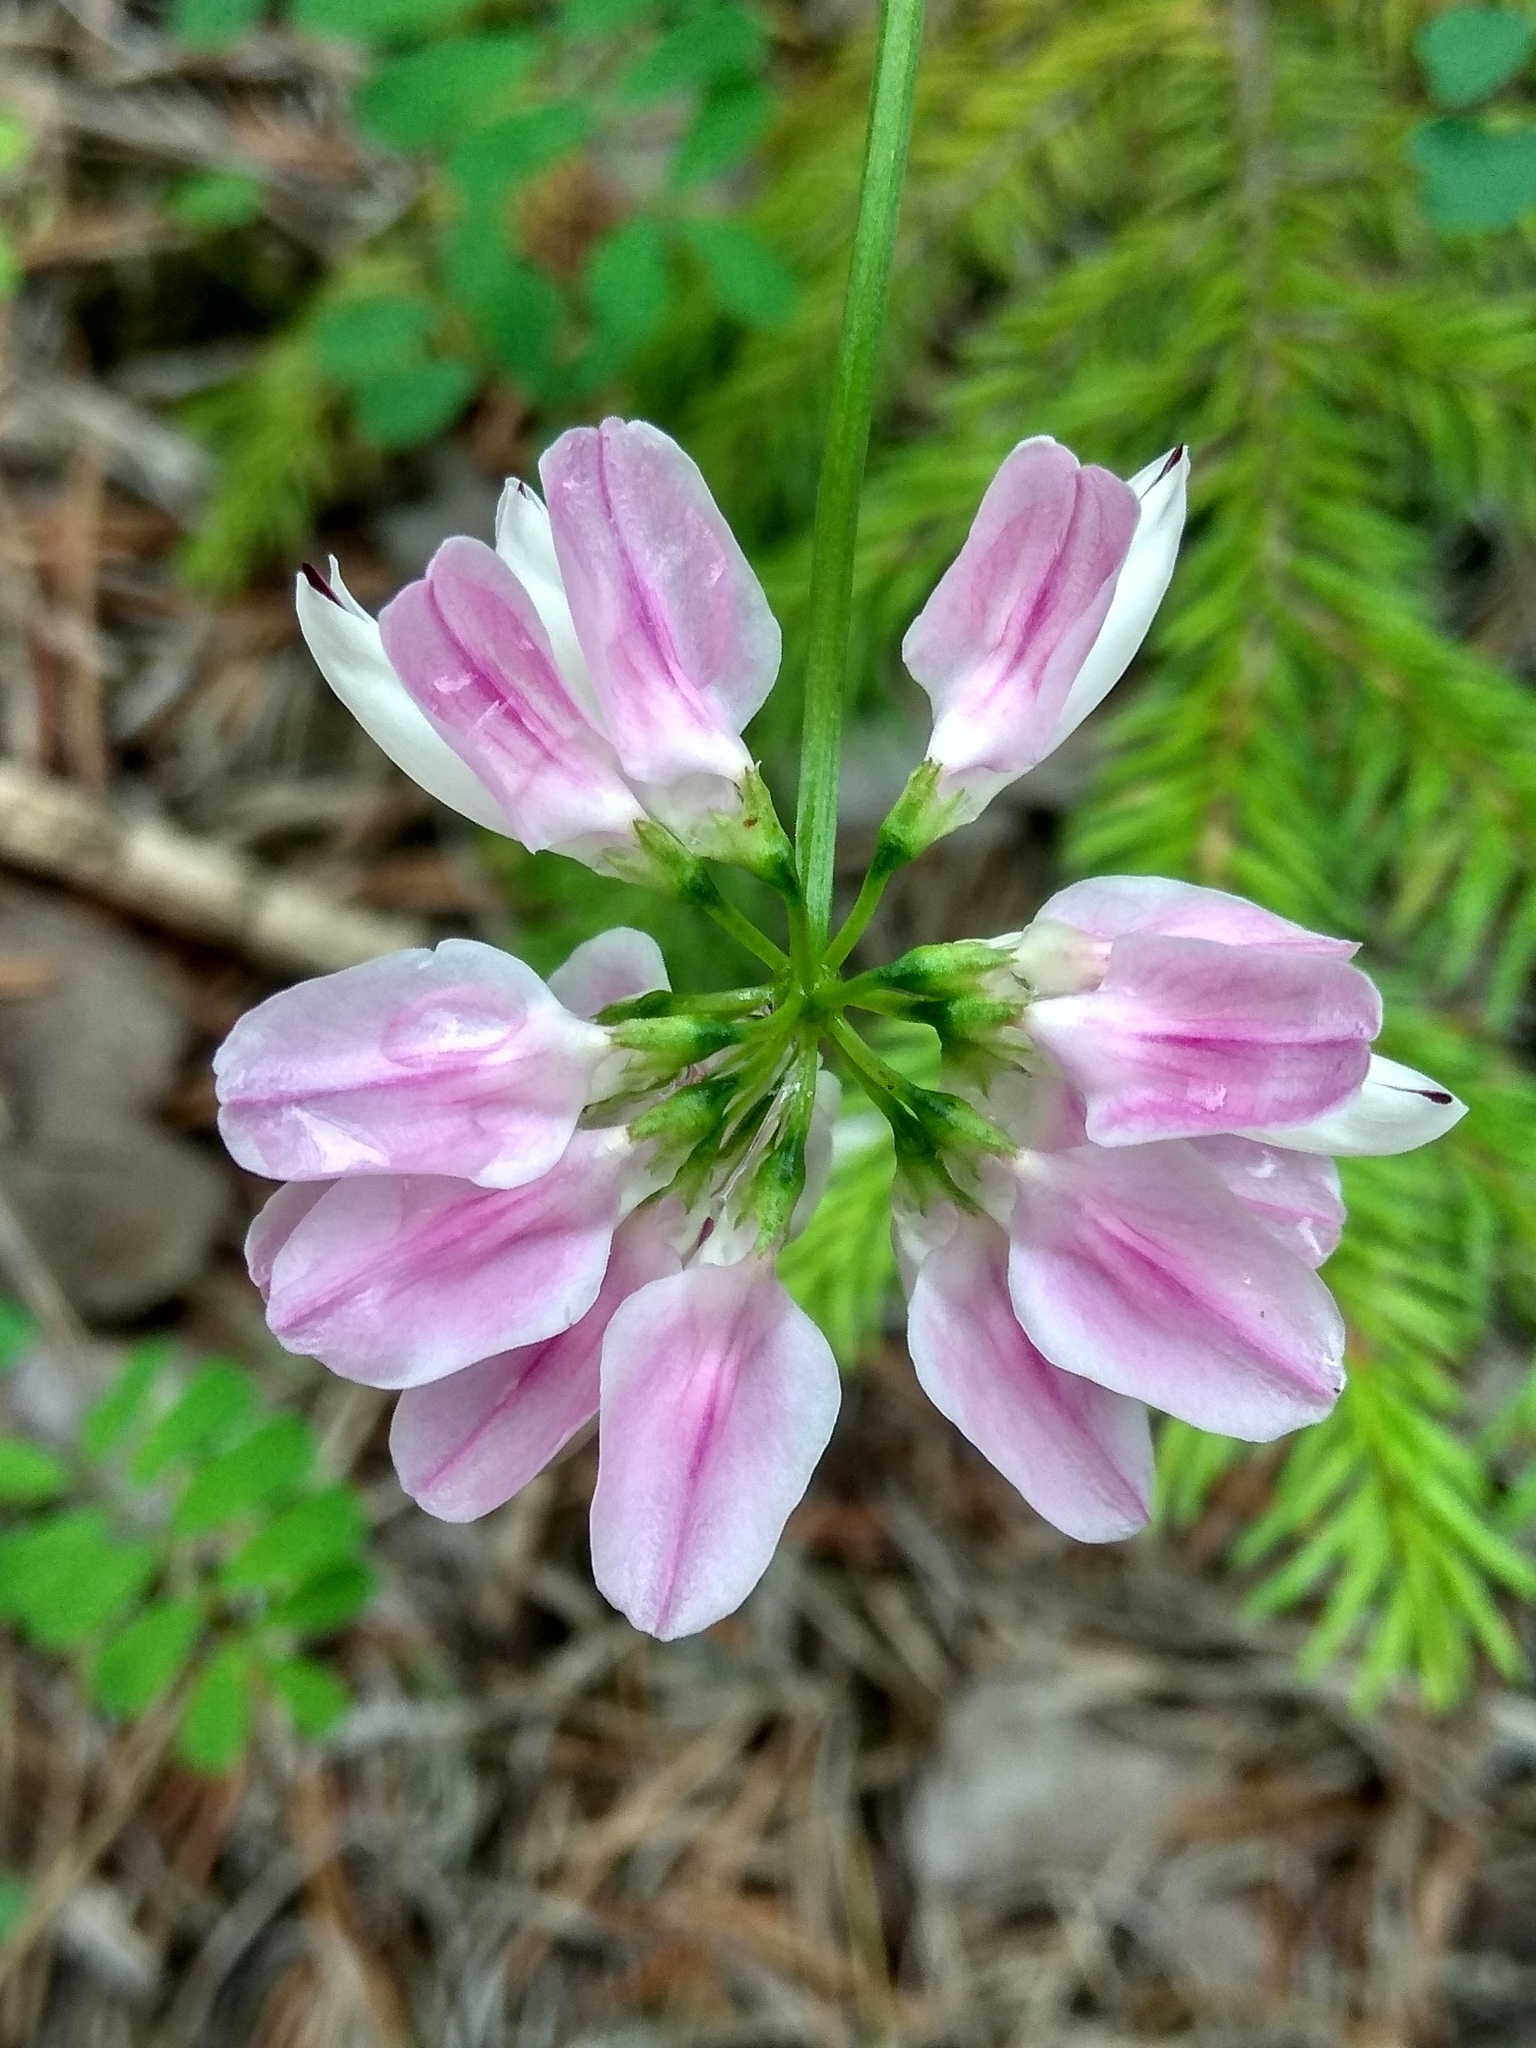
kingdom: Plantae
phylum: Tracheophyta
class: Magnoliopsida
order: Fabales
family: Fabaceae
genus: Coronilla
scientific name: Coronilla varia
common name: Crownvetch
